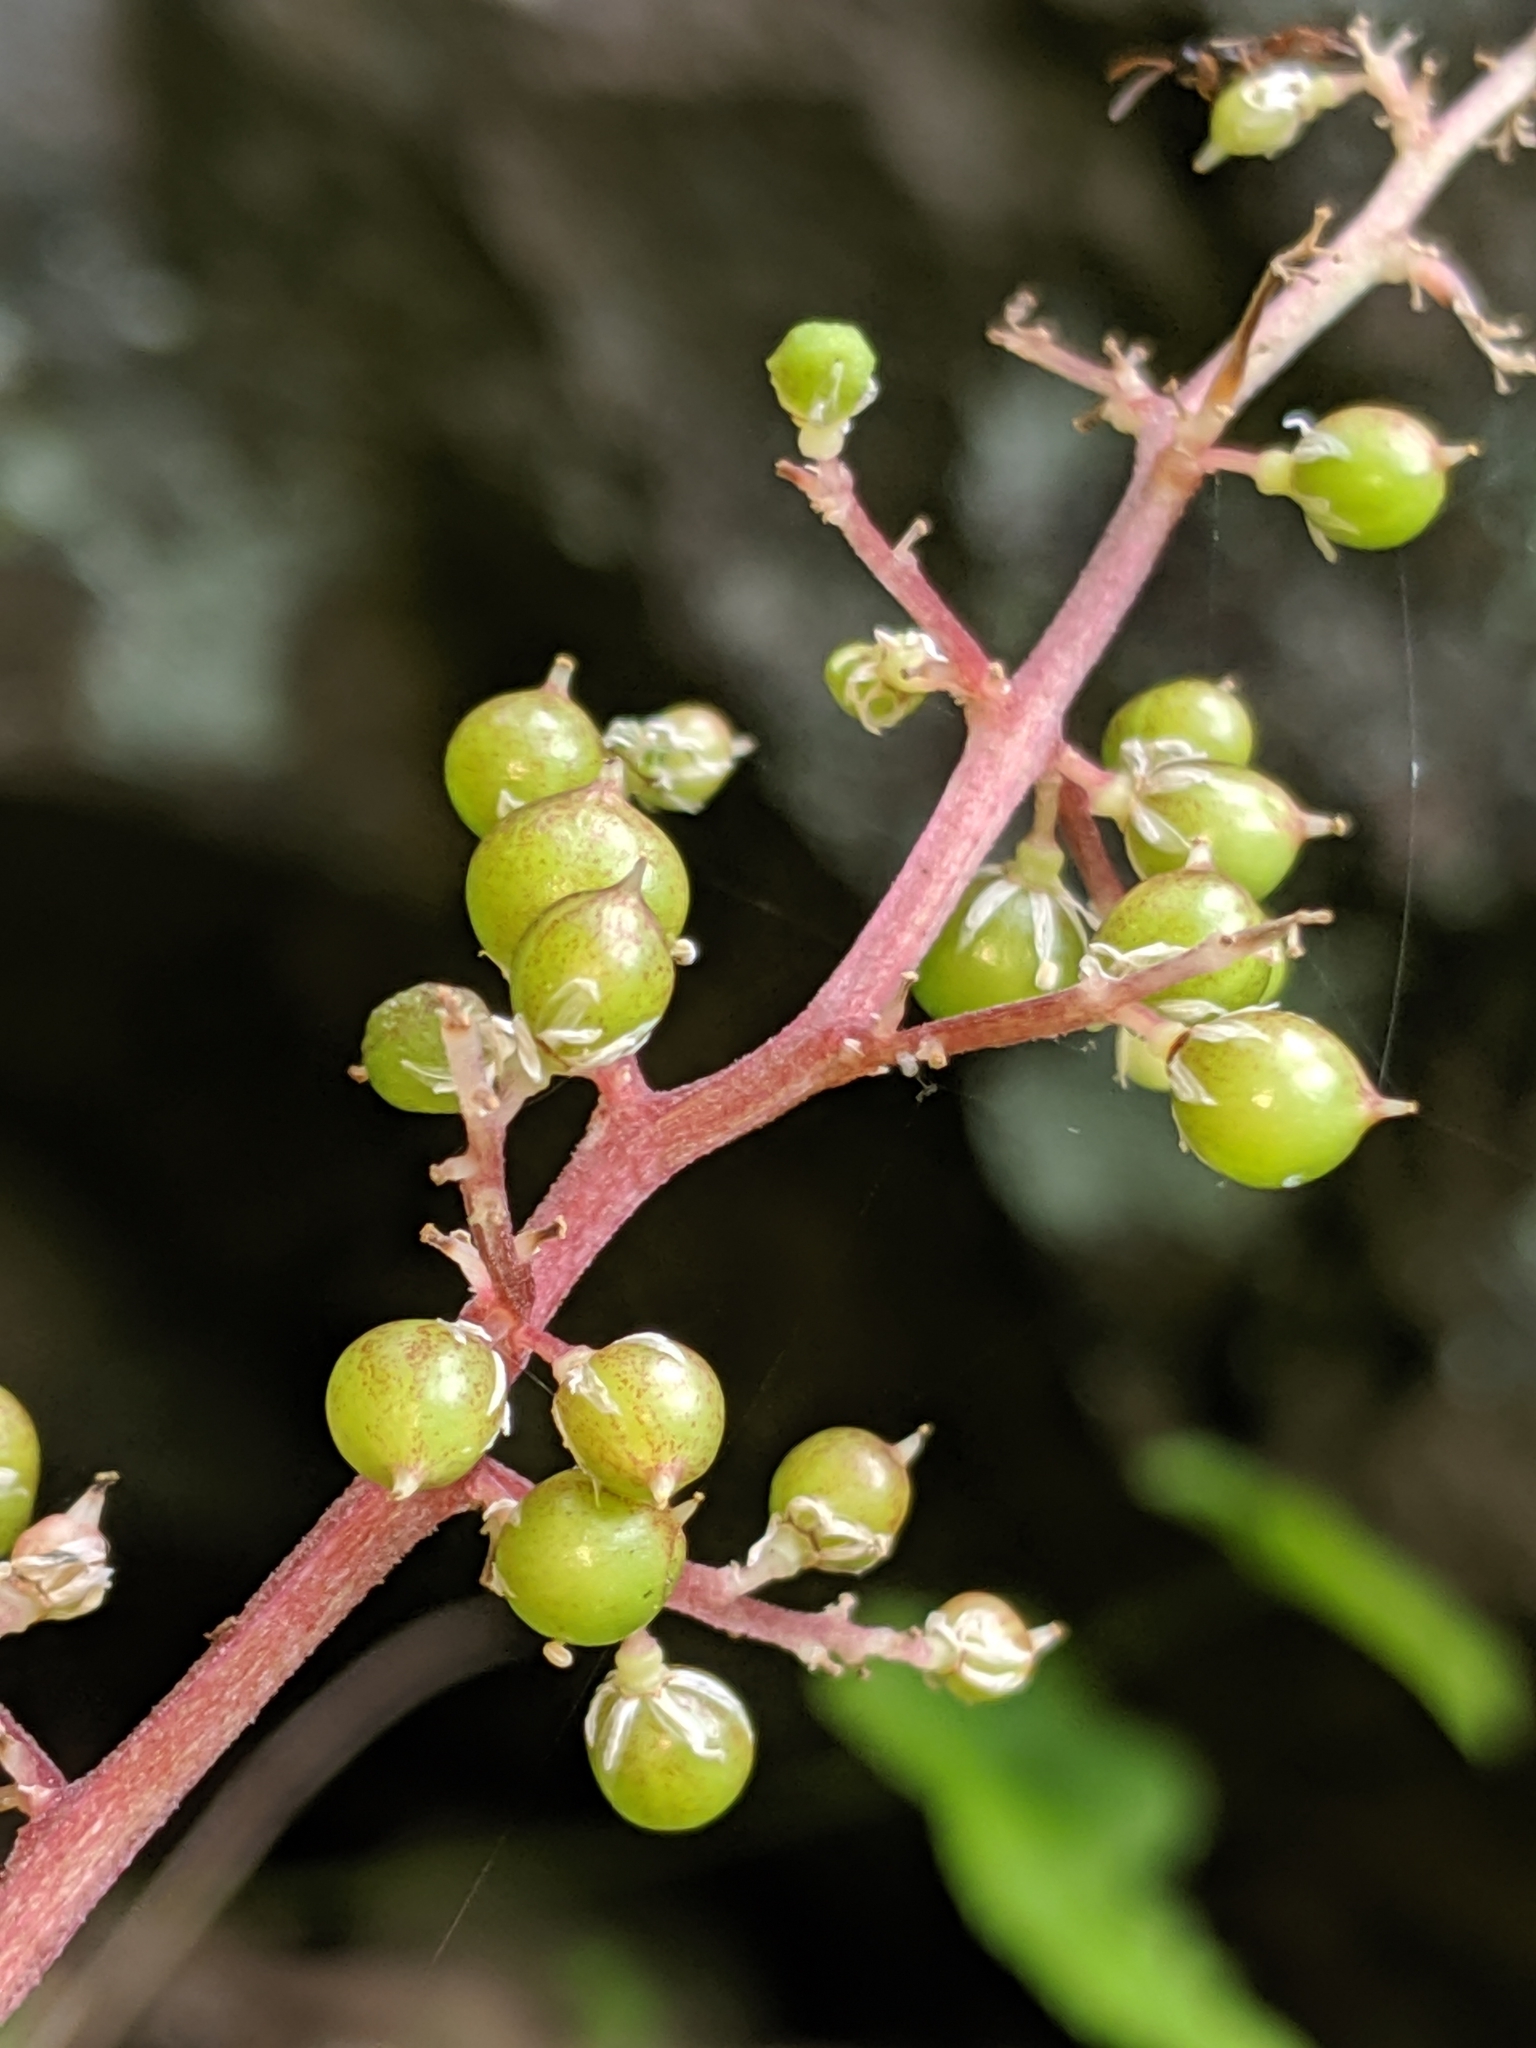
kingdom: Plantae
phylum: Tracheophyta
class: Liliopsida
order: Asparagales
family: Asparagaceae
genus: Maianthemum
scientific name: Maianthemum racemosum
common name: False spikenard
